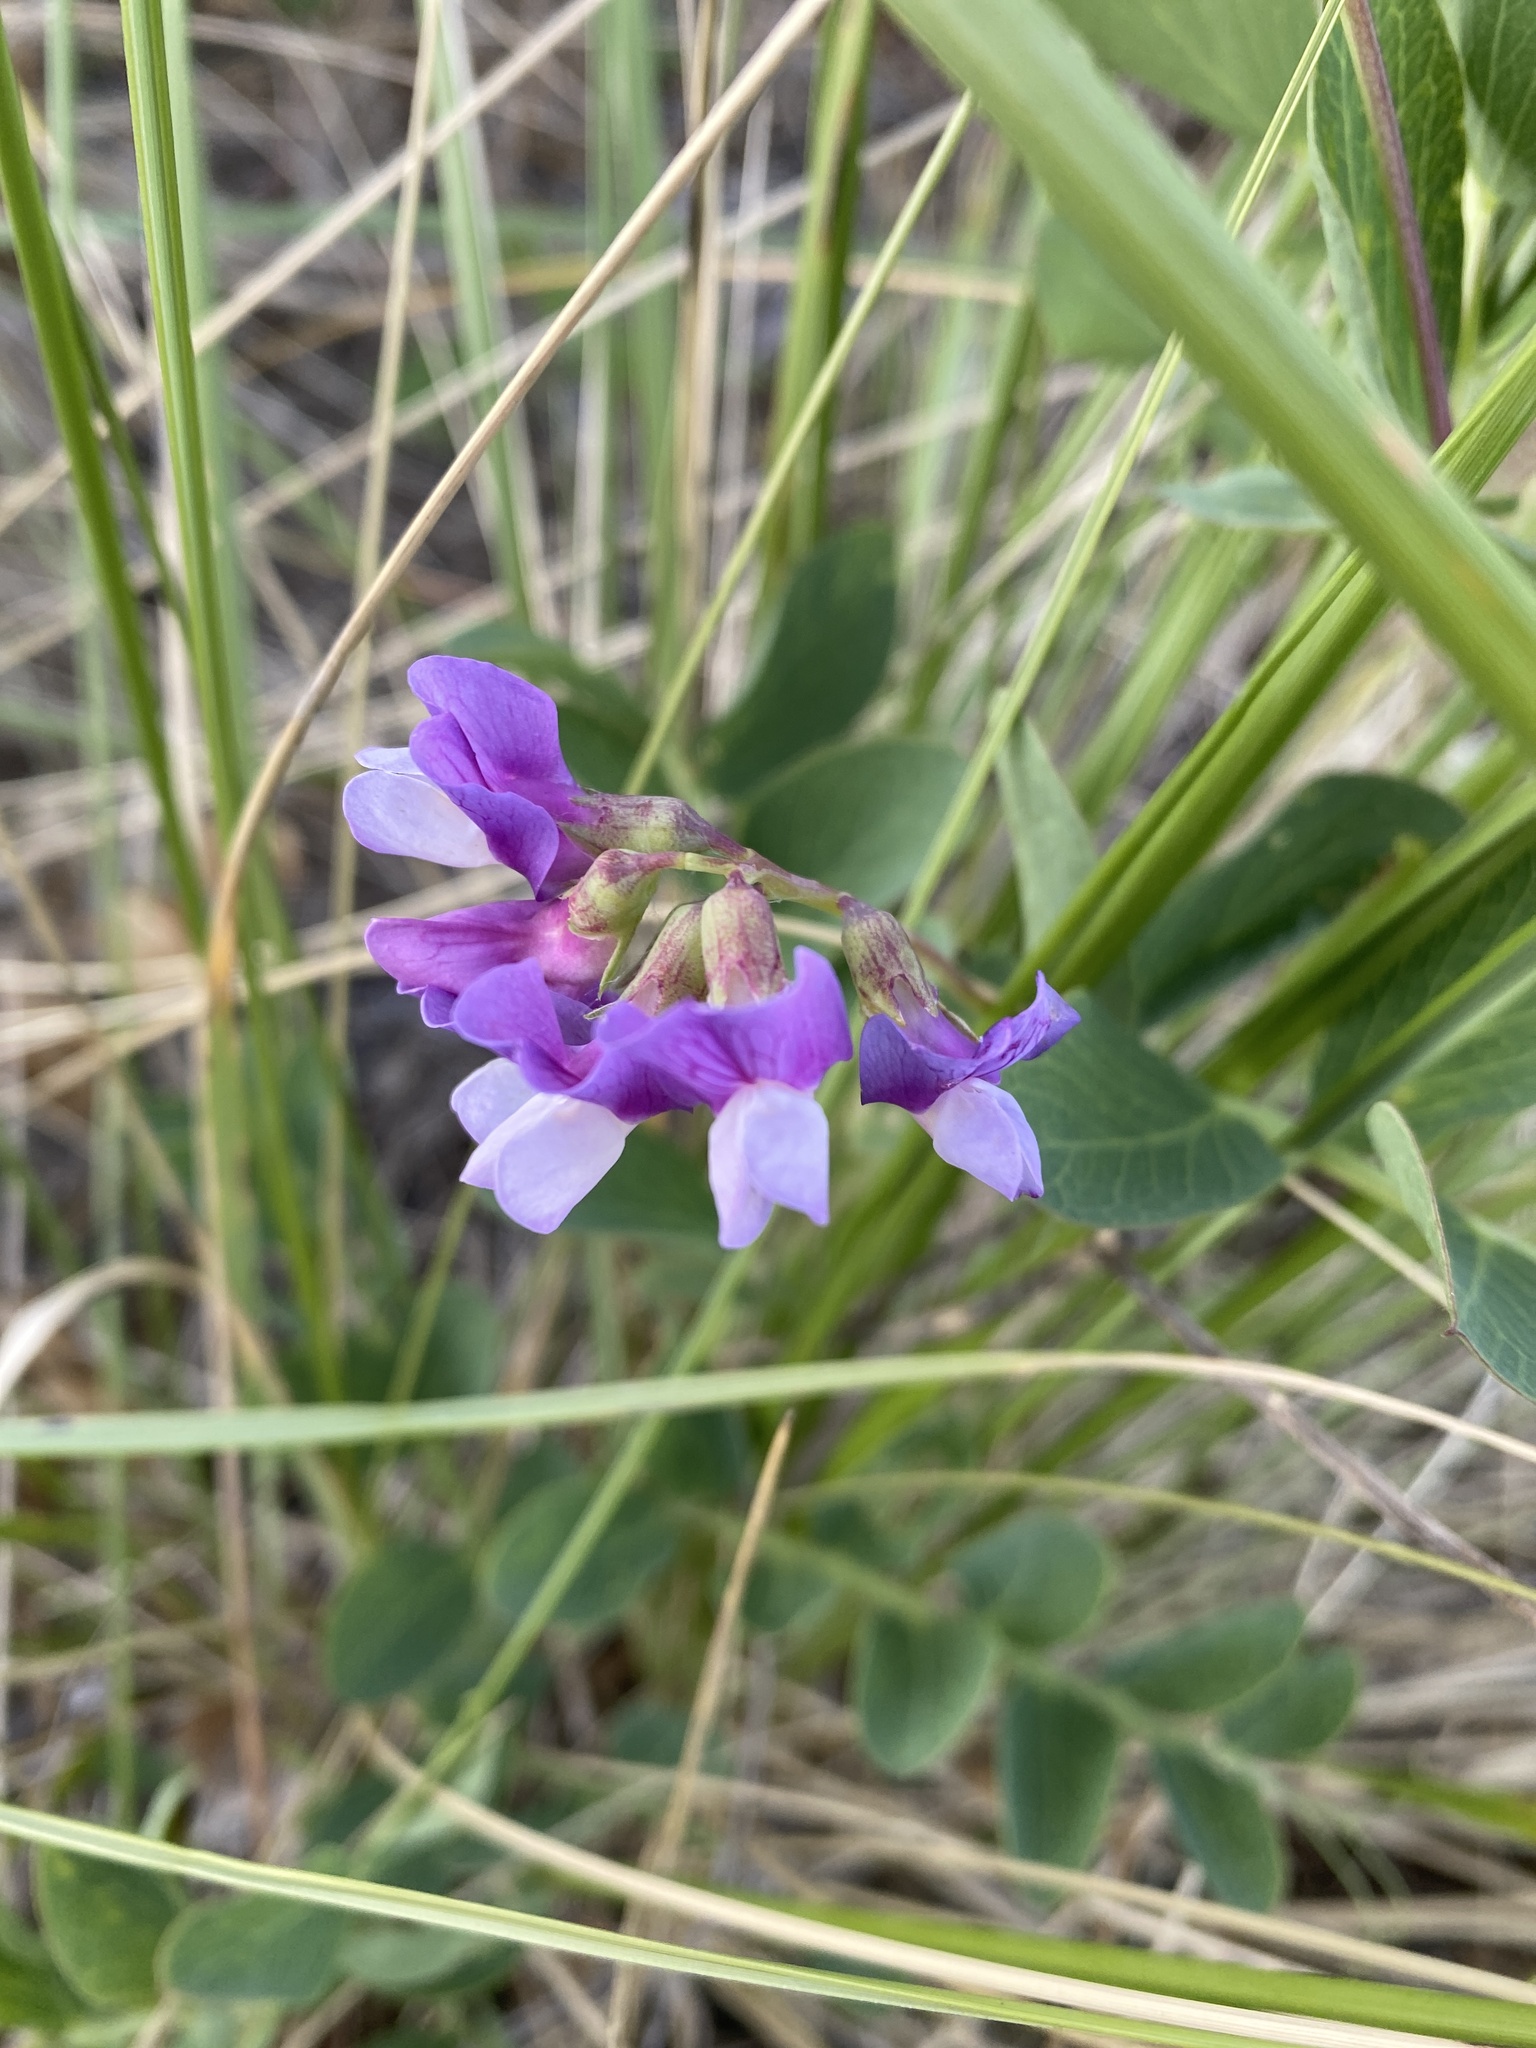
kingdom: Plantae
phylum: Tracheophyta
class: Magnoliopsida
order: Fabales
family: Fabaceae
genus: Lathyrus
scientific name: Lathyrus japonicus
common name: Sea pea
